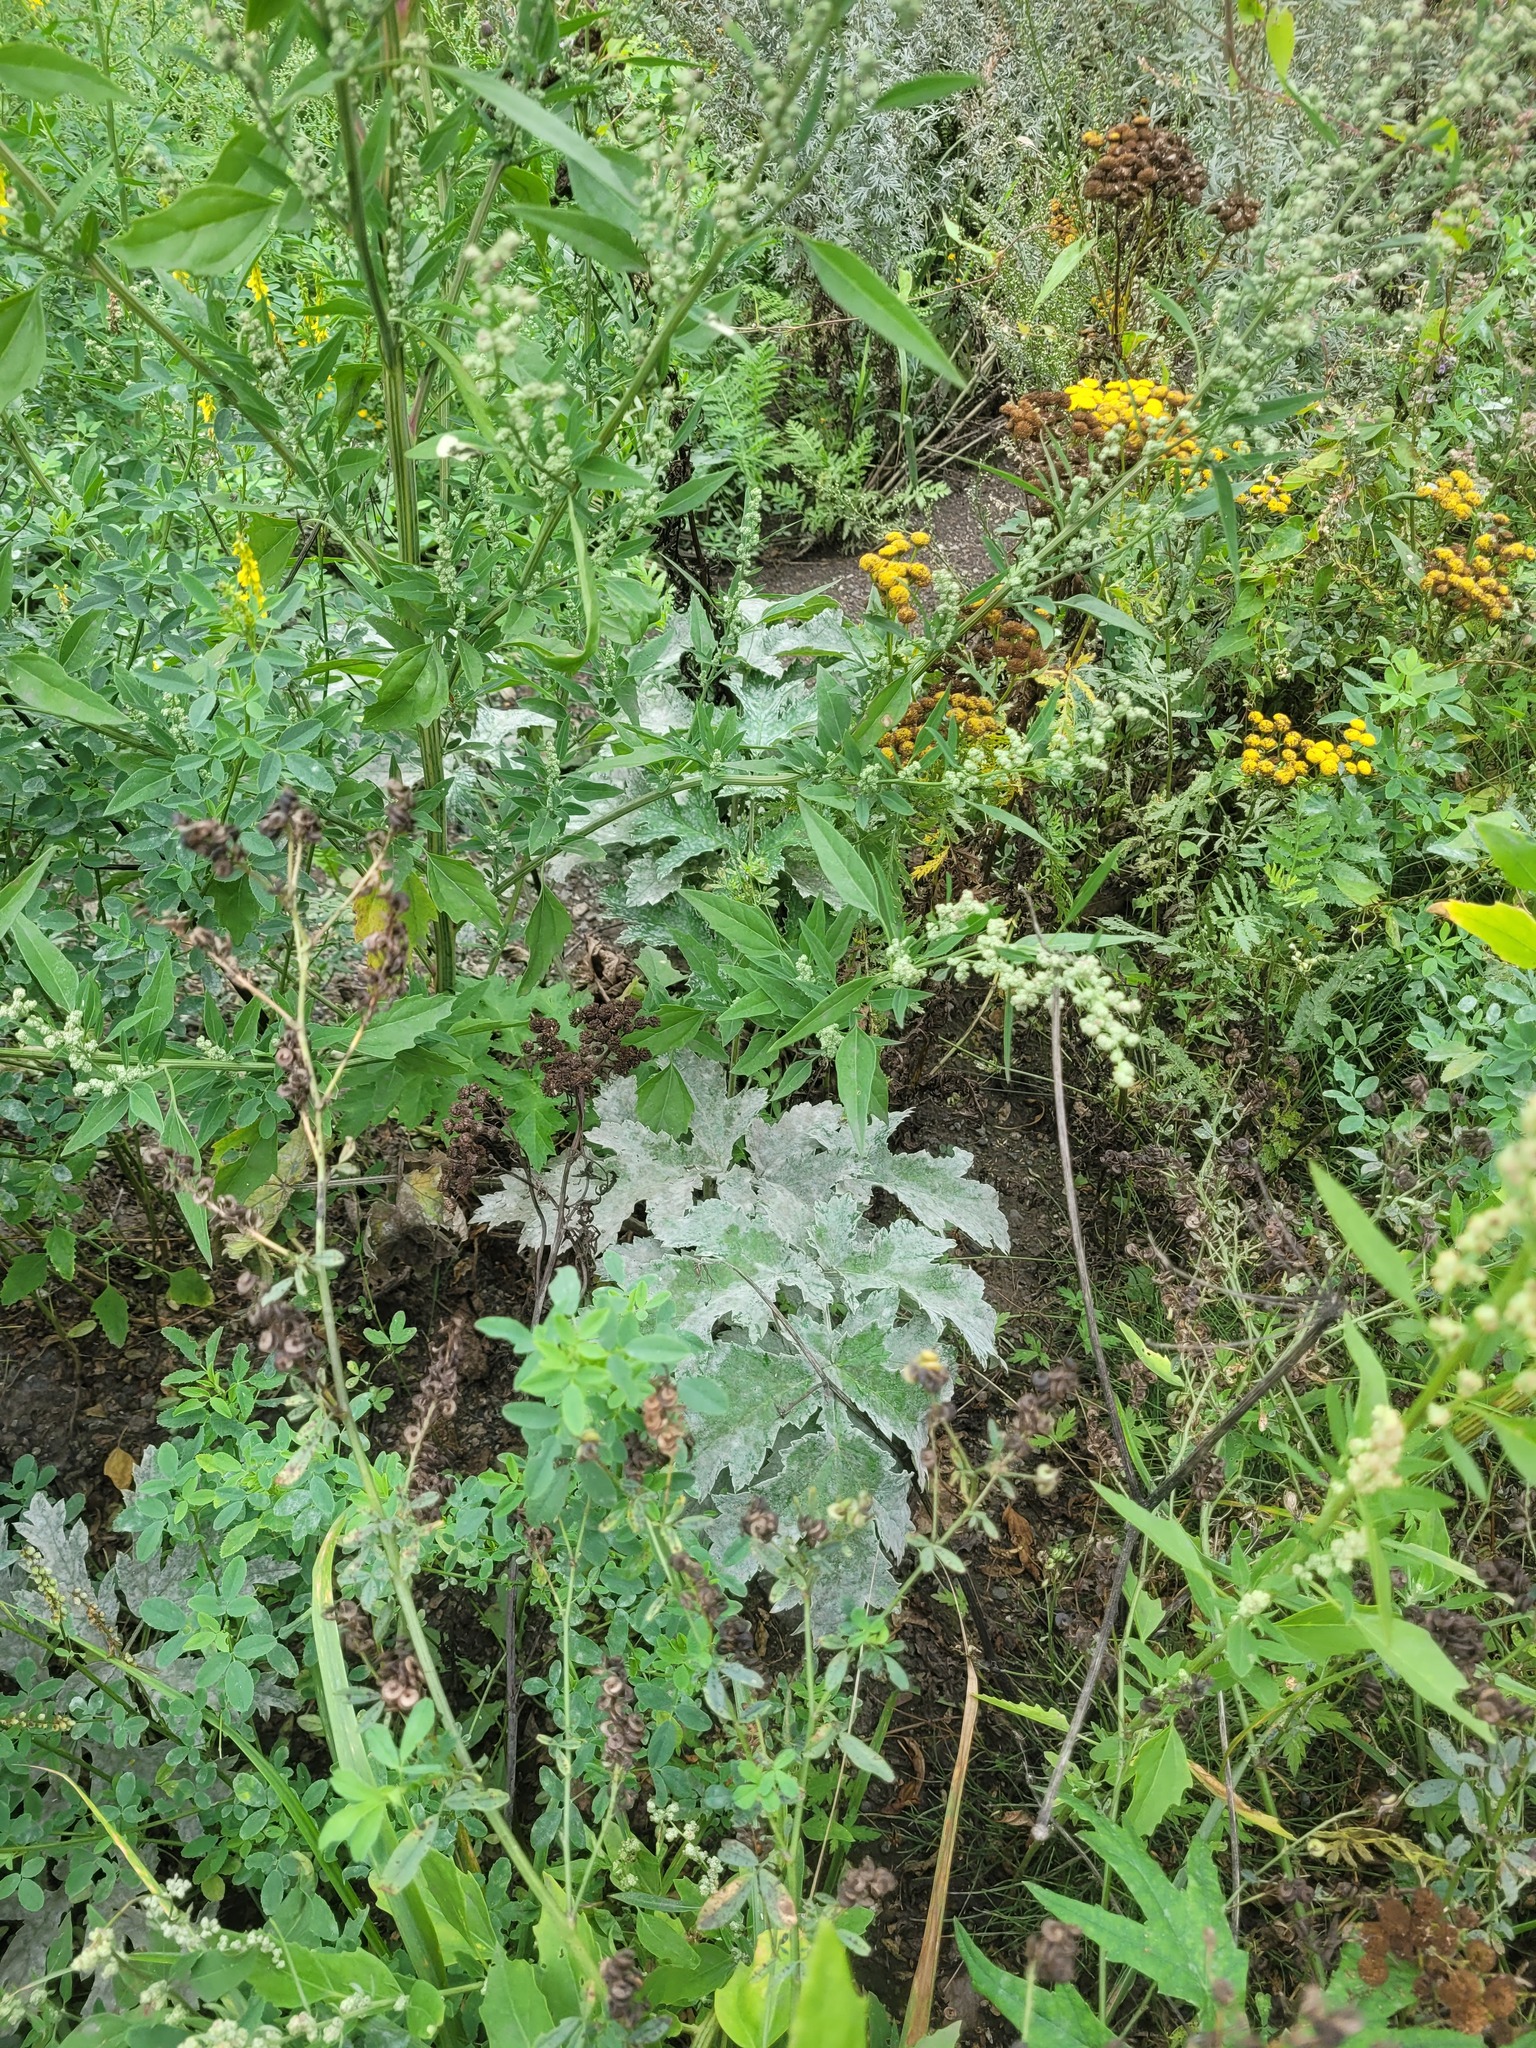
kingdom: Plantae
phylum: Tracheophyta
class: Magnoliopsida
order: Apiales
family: Apiaceae
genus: Heracleum
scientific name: Heracleum sphondylium
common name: Hogweed
